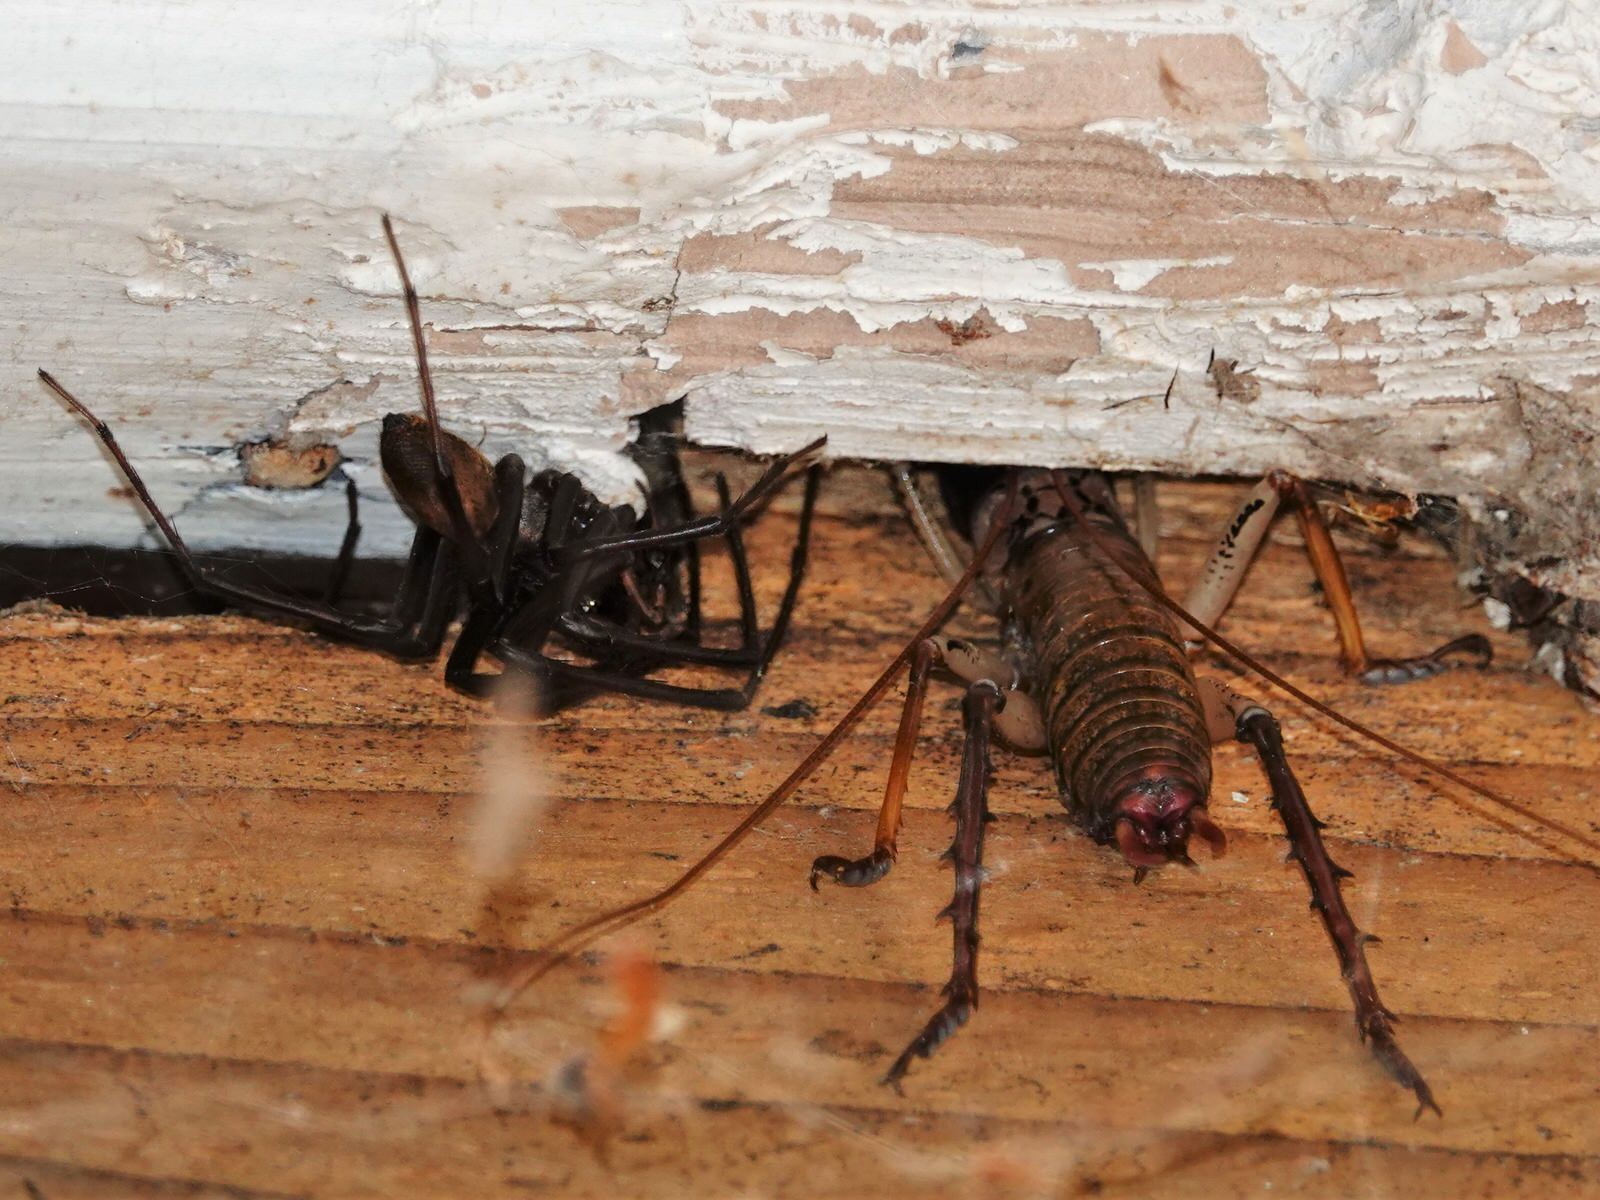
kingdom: Animalia
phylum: Arthropoda
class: Insecta
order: Orthoptera
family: Anostostomatidae
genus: Hemideina
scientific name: Hemideina thoracica
